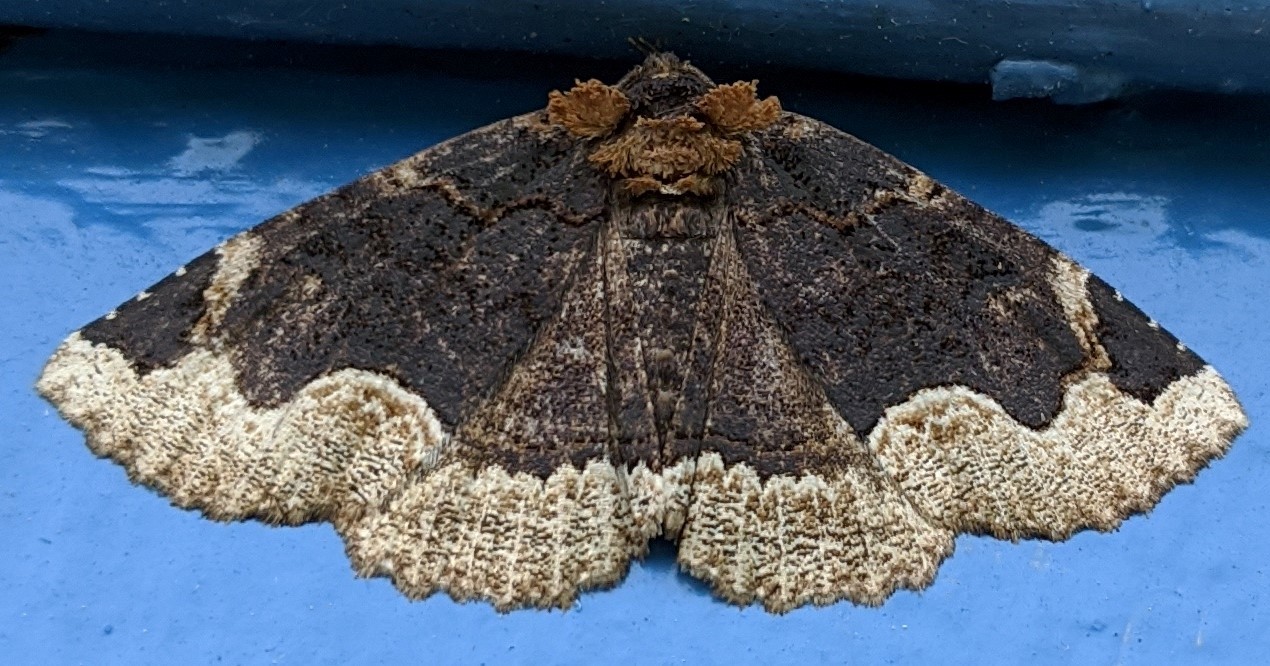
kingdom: Animalia
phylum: Arthropoda
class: Insecta
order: Lepidoptera
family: Erebidae
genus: Zale
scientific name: Zale horrida
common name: Horrid zale moth
